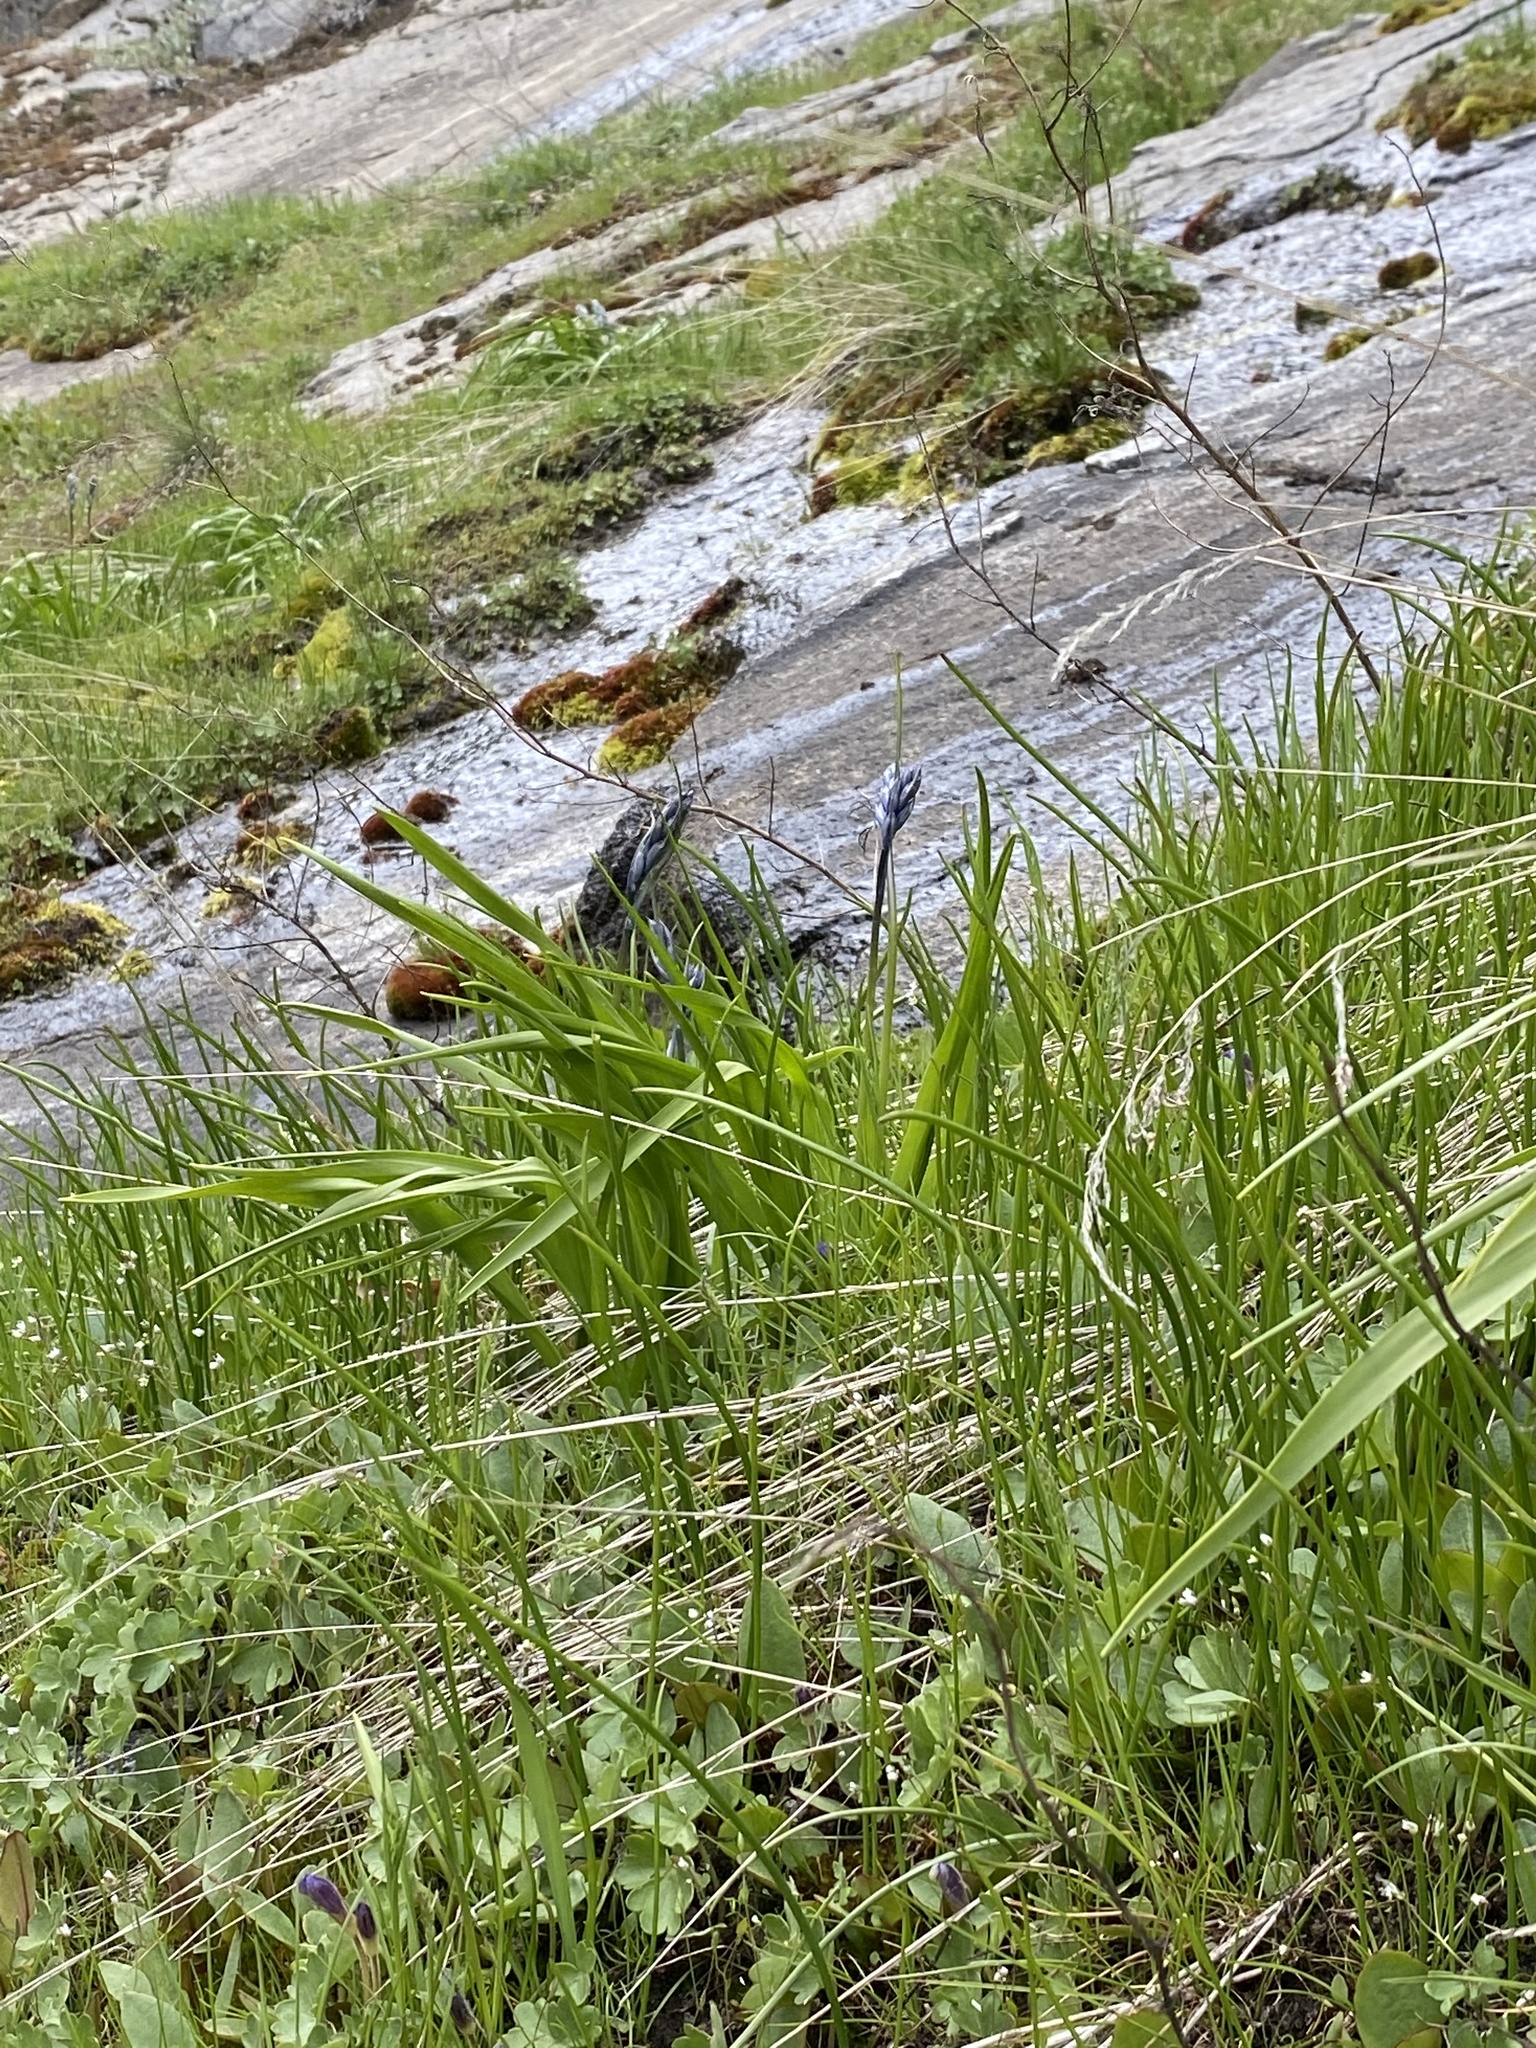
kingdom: Plantae
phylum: Tracheophyta
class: Liliopsida
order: Asparagales
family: Asparagaceae
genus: Camassia
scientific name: Camassia quamash
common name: Common camas
